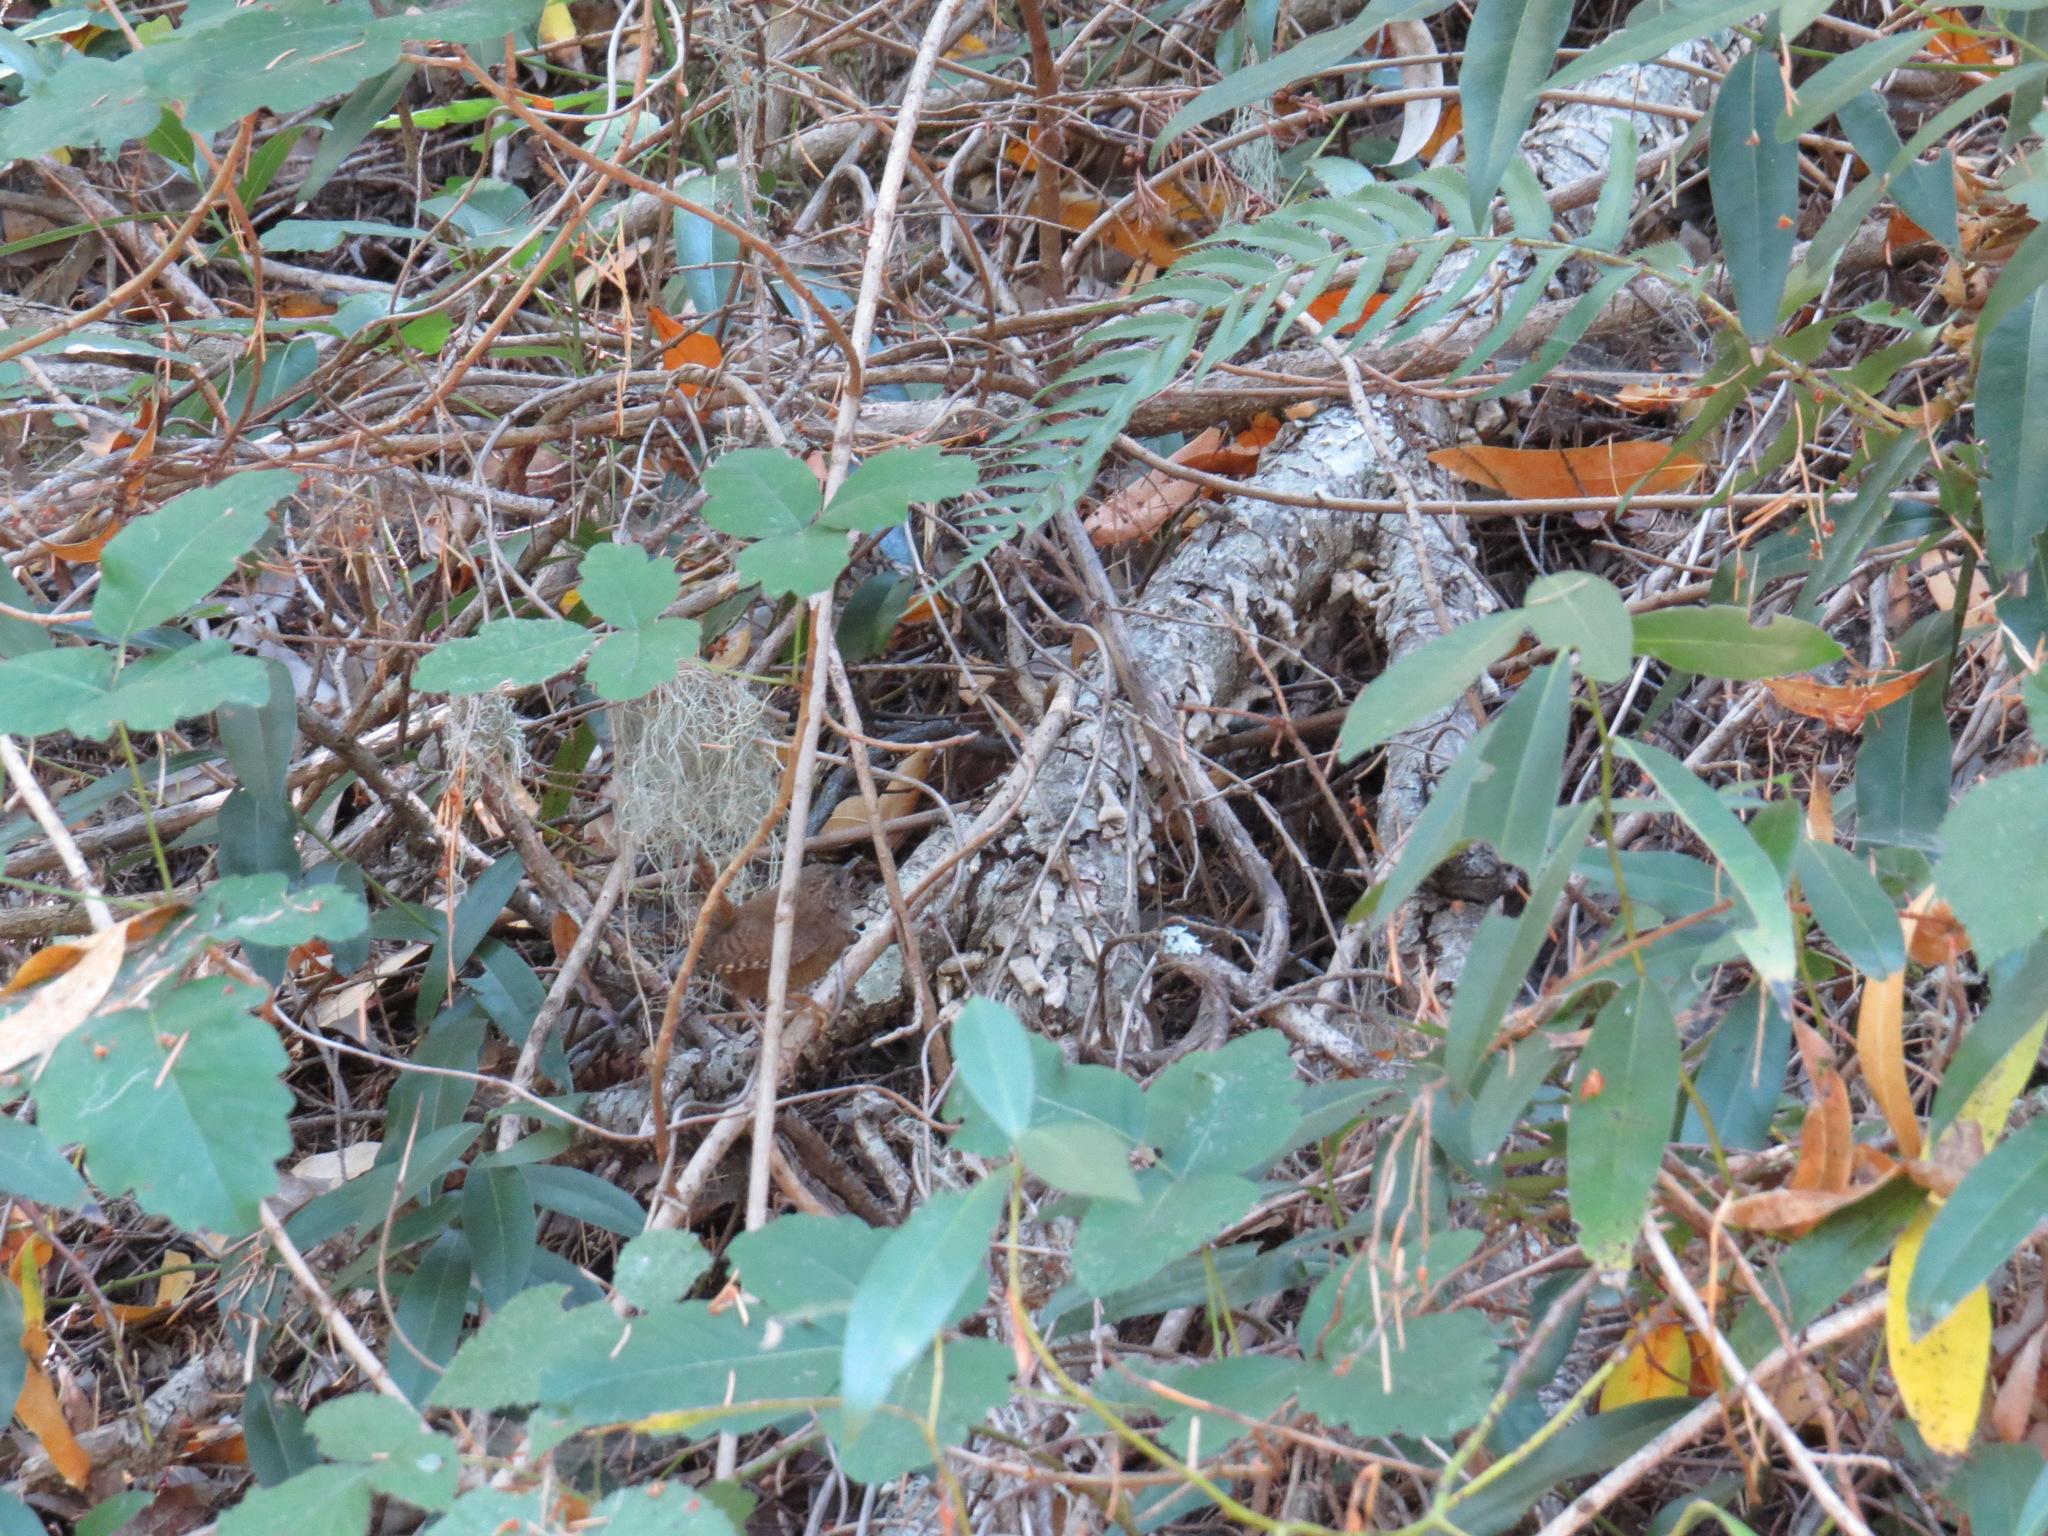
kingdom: Animalia
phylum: Chordata
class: Aves
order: Passeriformes
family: Troglodytidae
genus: Troglodytes
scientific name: Troglodytes pacificus
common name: Pacific wren
